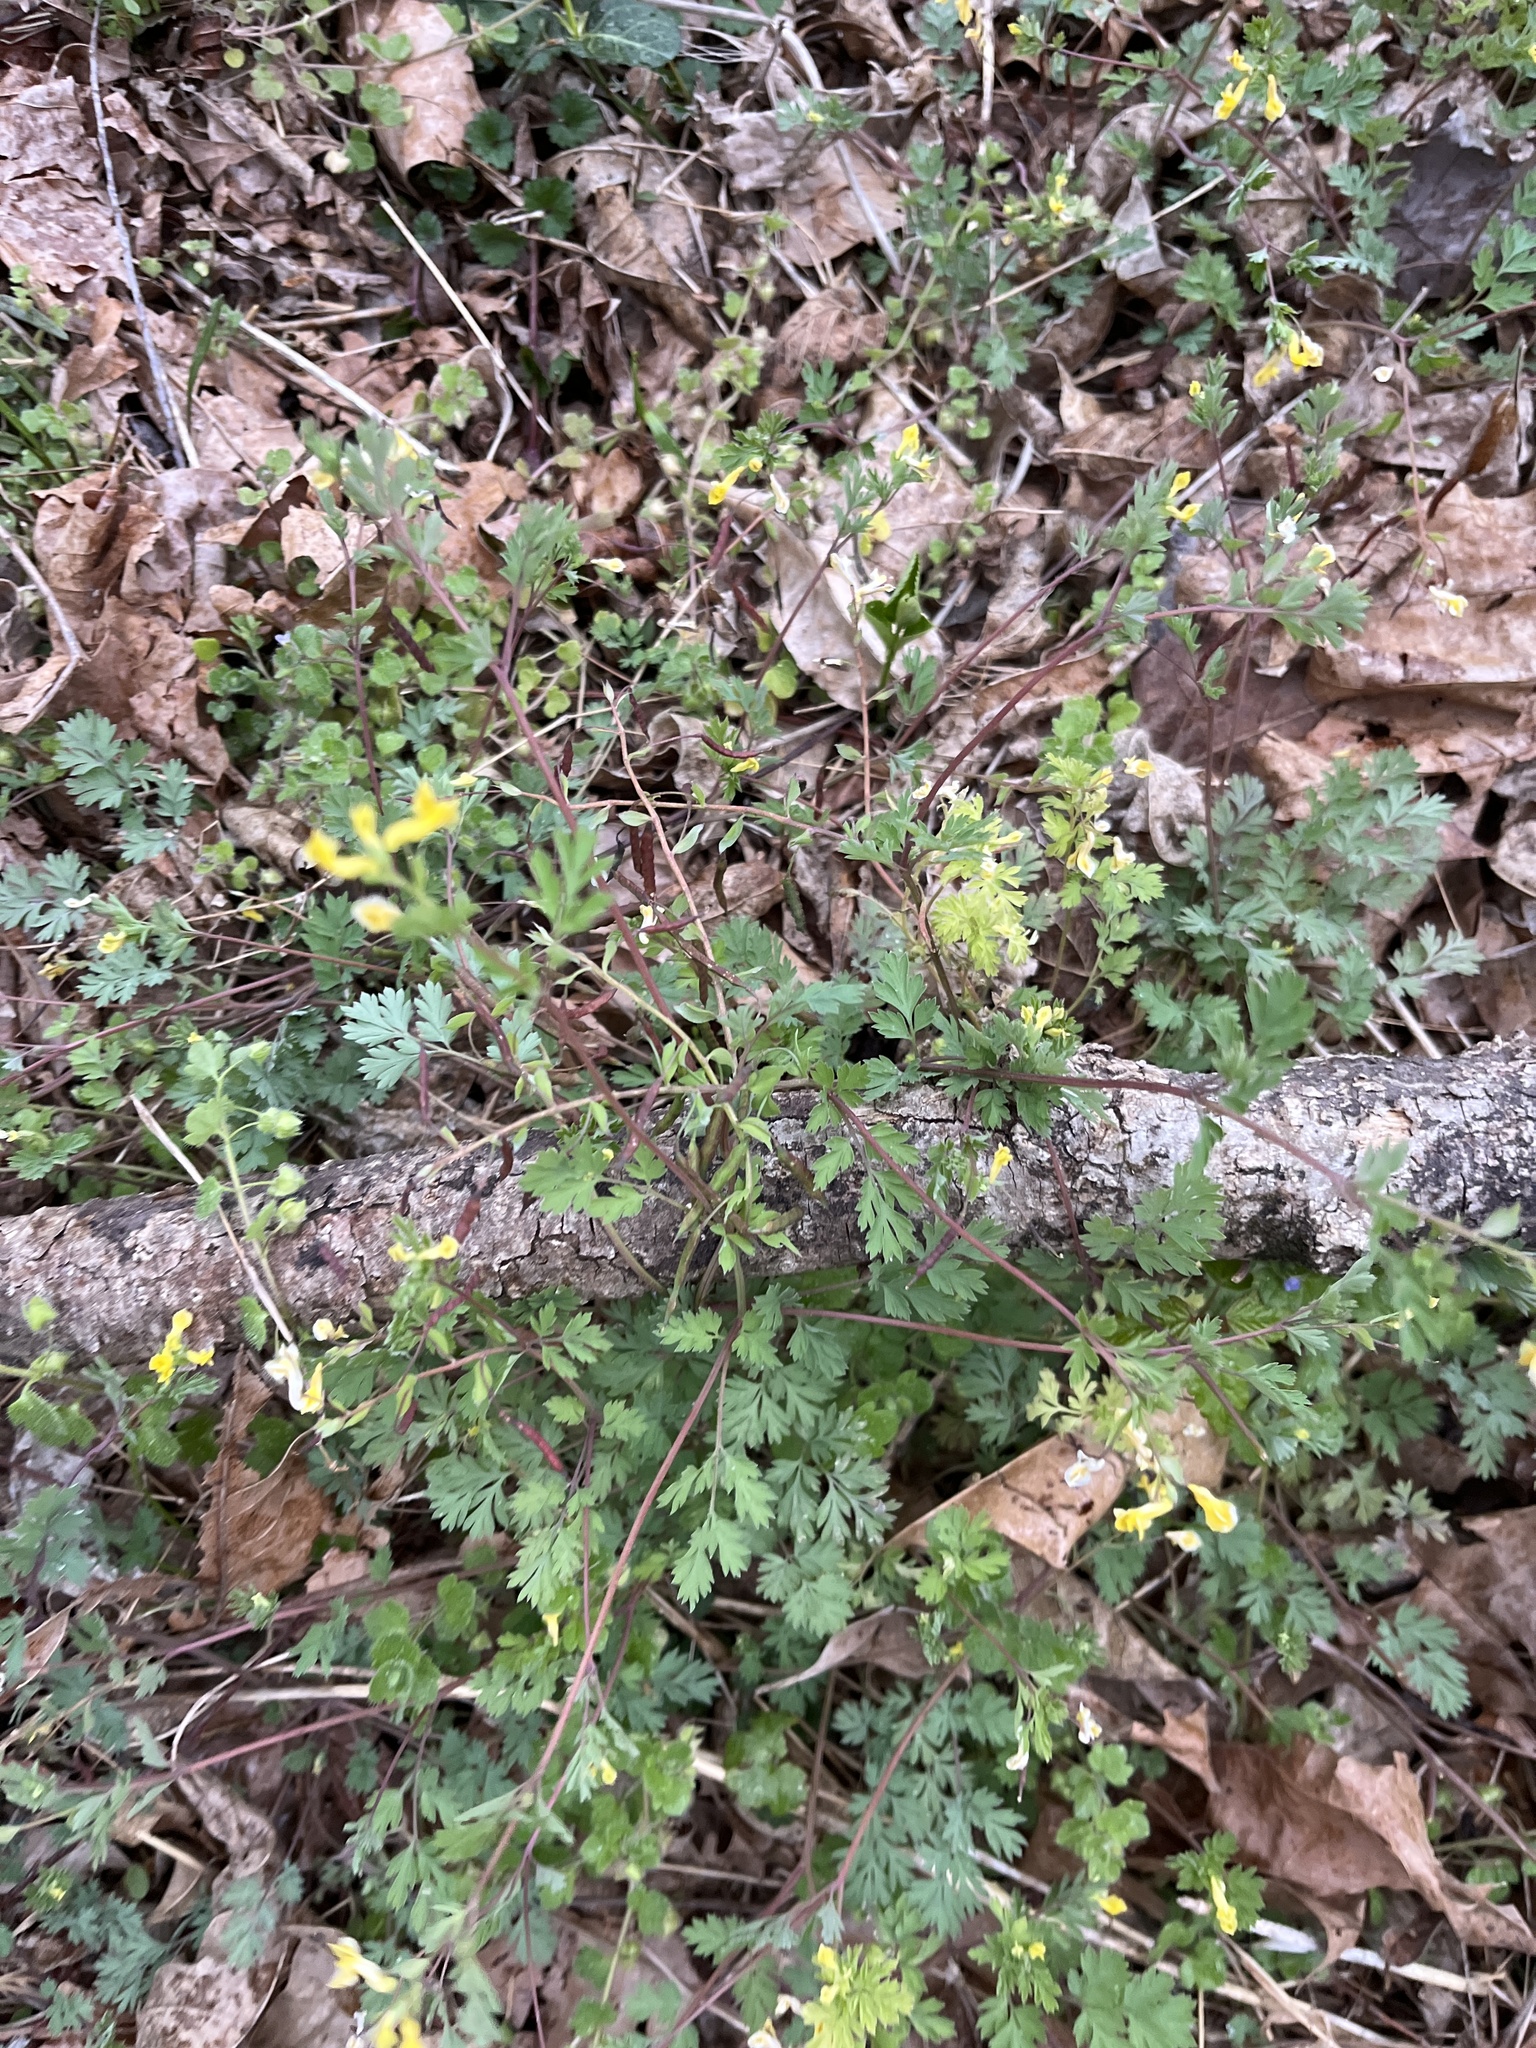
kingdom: Plantae
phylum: Tracheophyta
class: Magnoliopsida
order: Ranunculales
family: Papaveraceae
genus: Corydalis
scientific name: Corydalis flavula
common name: Yellow corydalis
